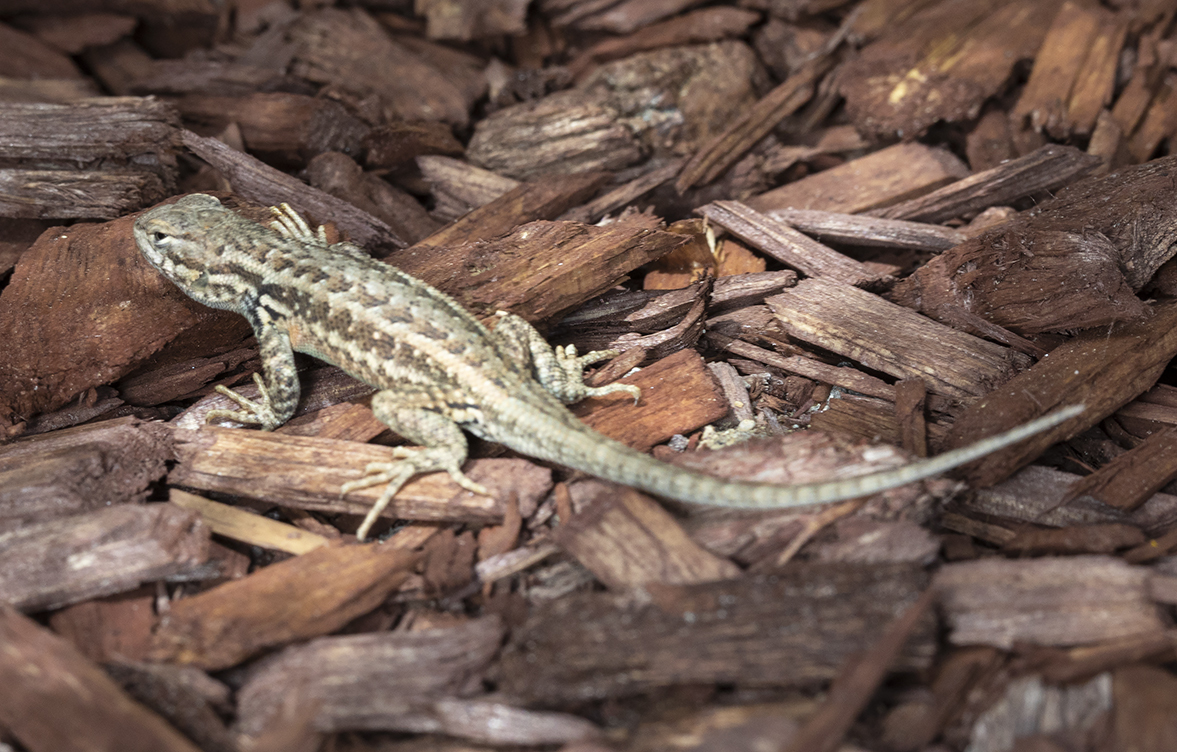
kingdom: Animalia
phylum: Chordata
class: Squamata
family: Phrynosomatidae
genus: Sceloporus
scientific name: Sceloporus graciosus
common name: Sagebrush lizard
